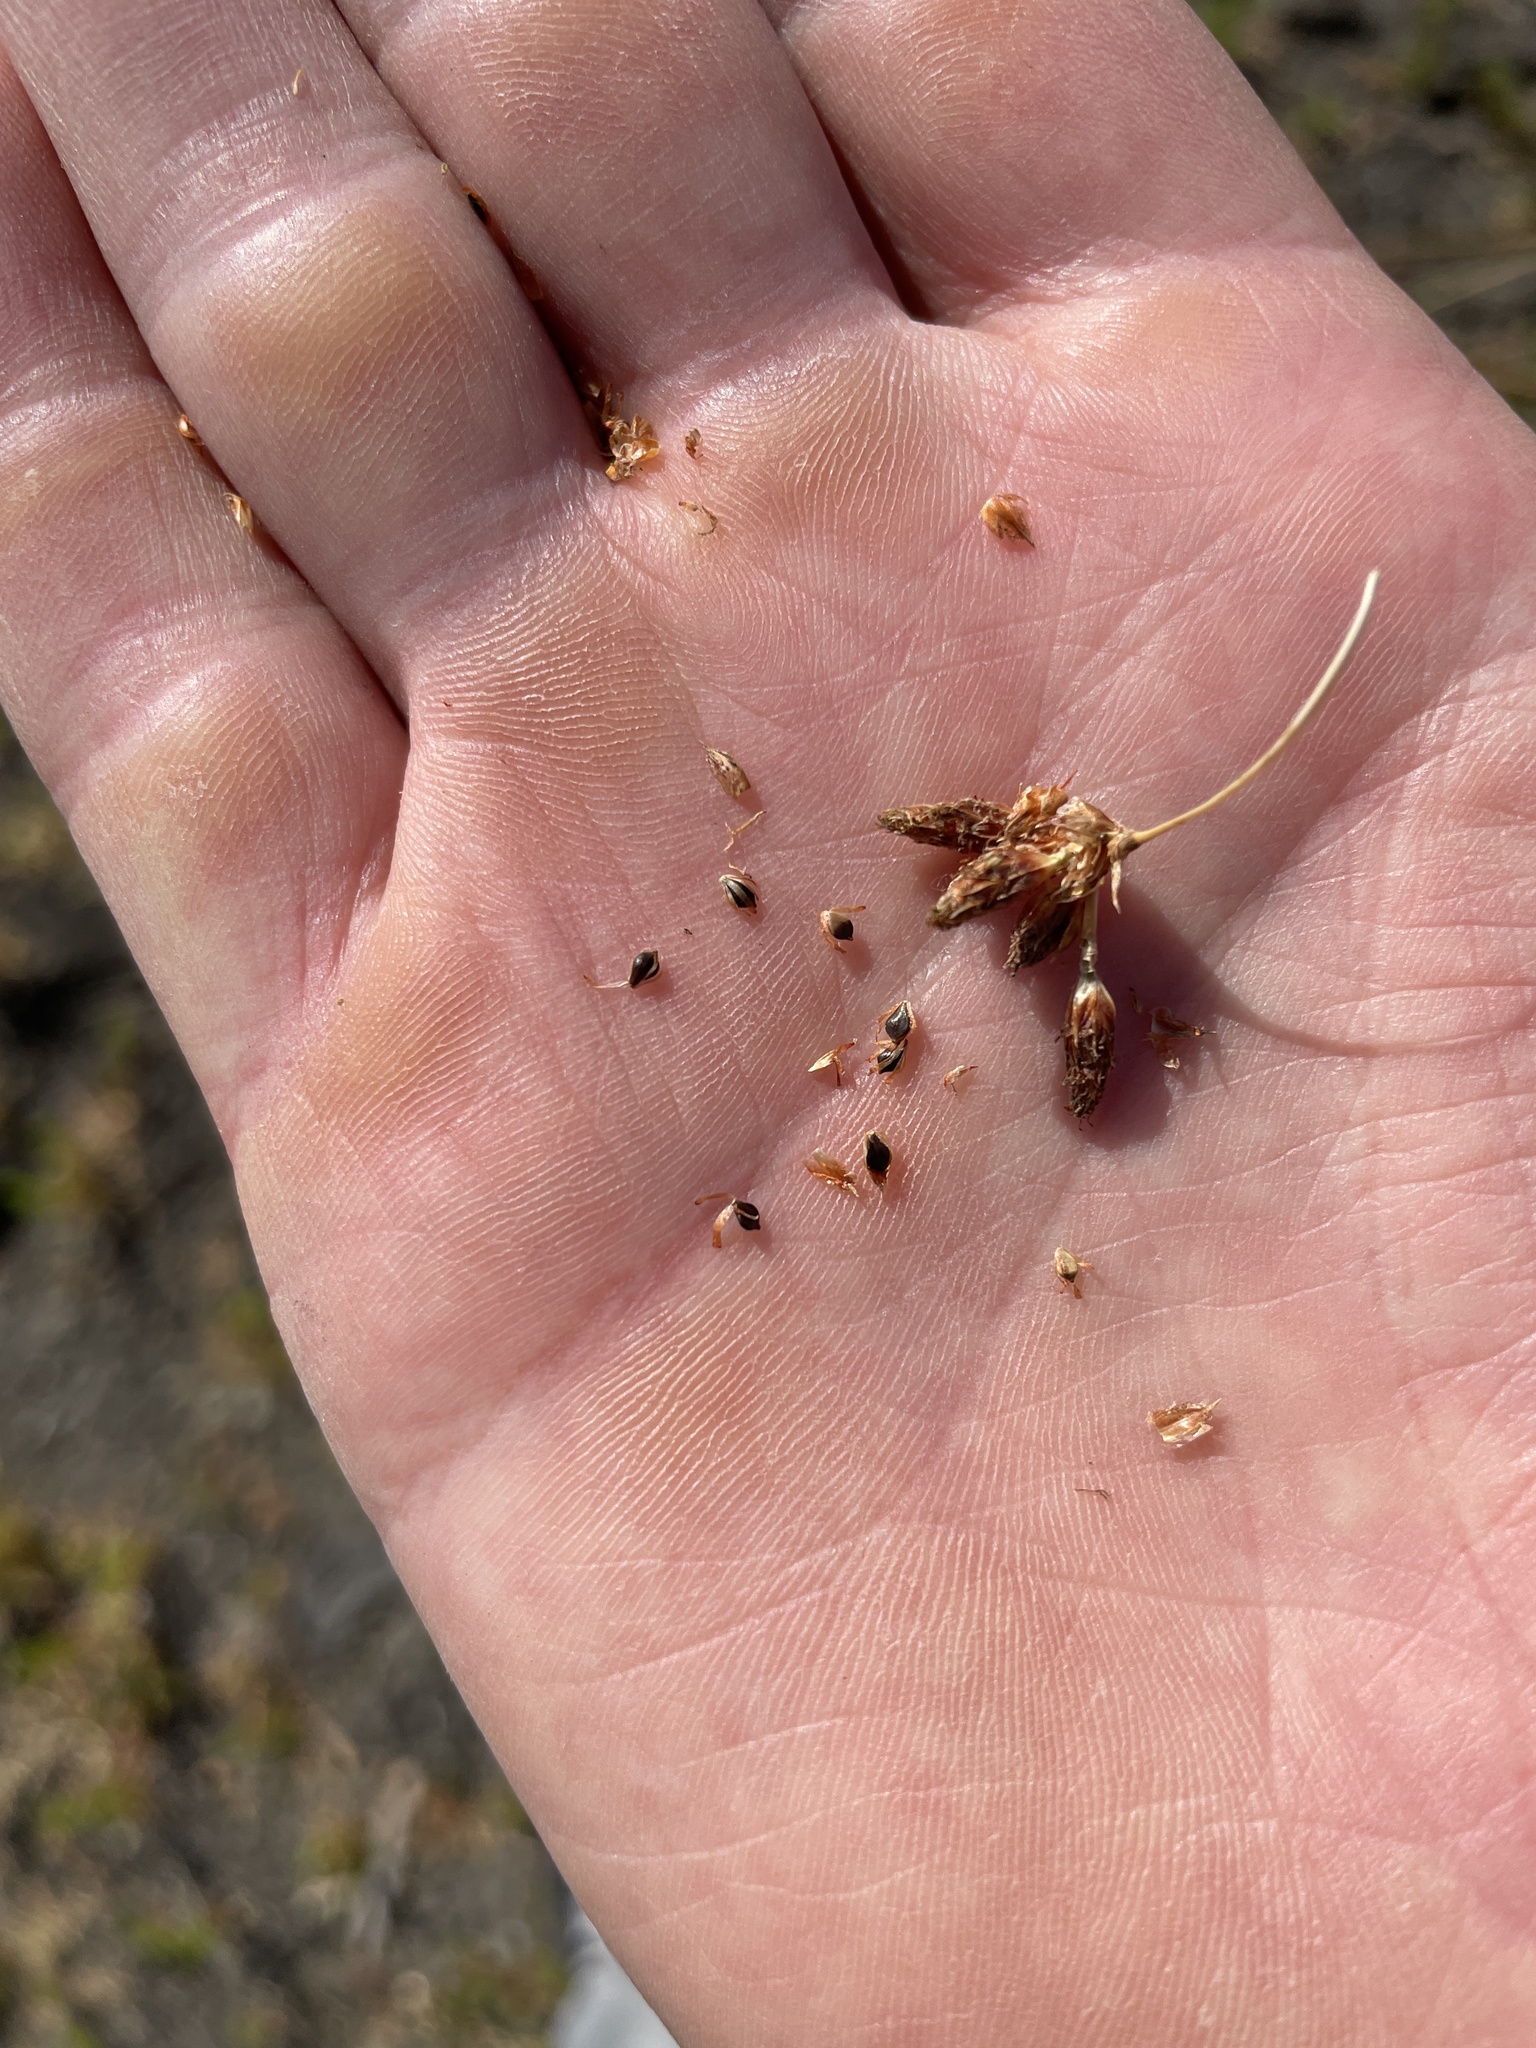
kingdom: Plantae
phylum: Tracheophyta
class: Liliopsida
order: Poales
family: Cyperaceae
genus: Schoenoplectus
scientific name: Schoenoplectus californicus
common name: California bulrush
